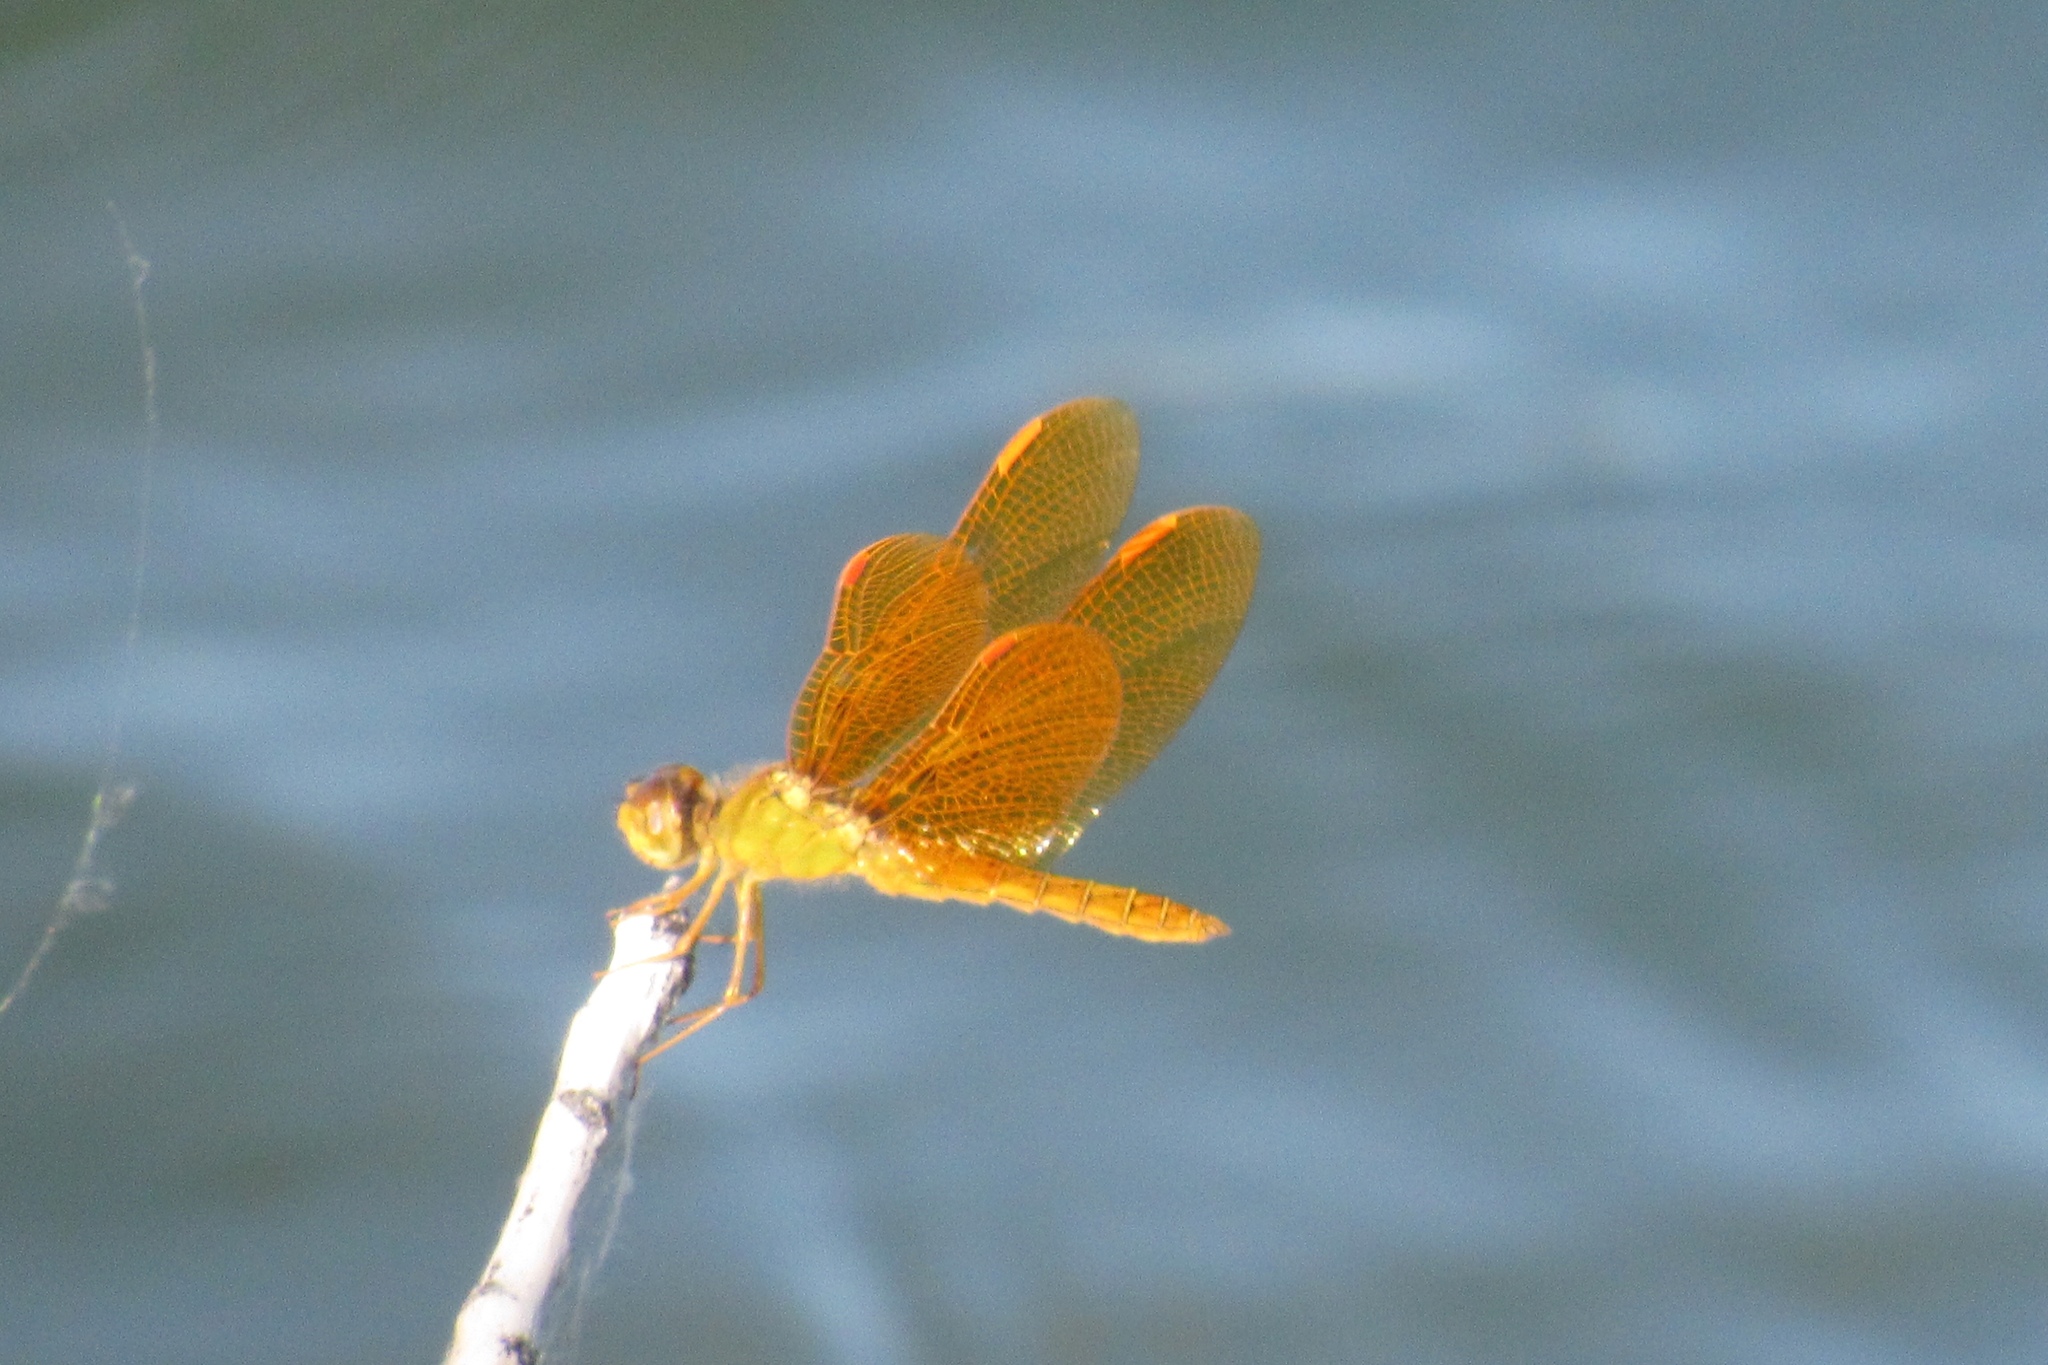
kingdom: Animalia
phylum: Arthropoda
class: Insecta
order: Odonata
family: Libellulidae
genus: Perithemis
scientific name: Perithemis intensa
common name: Mexican amberwing
